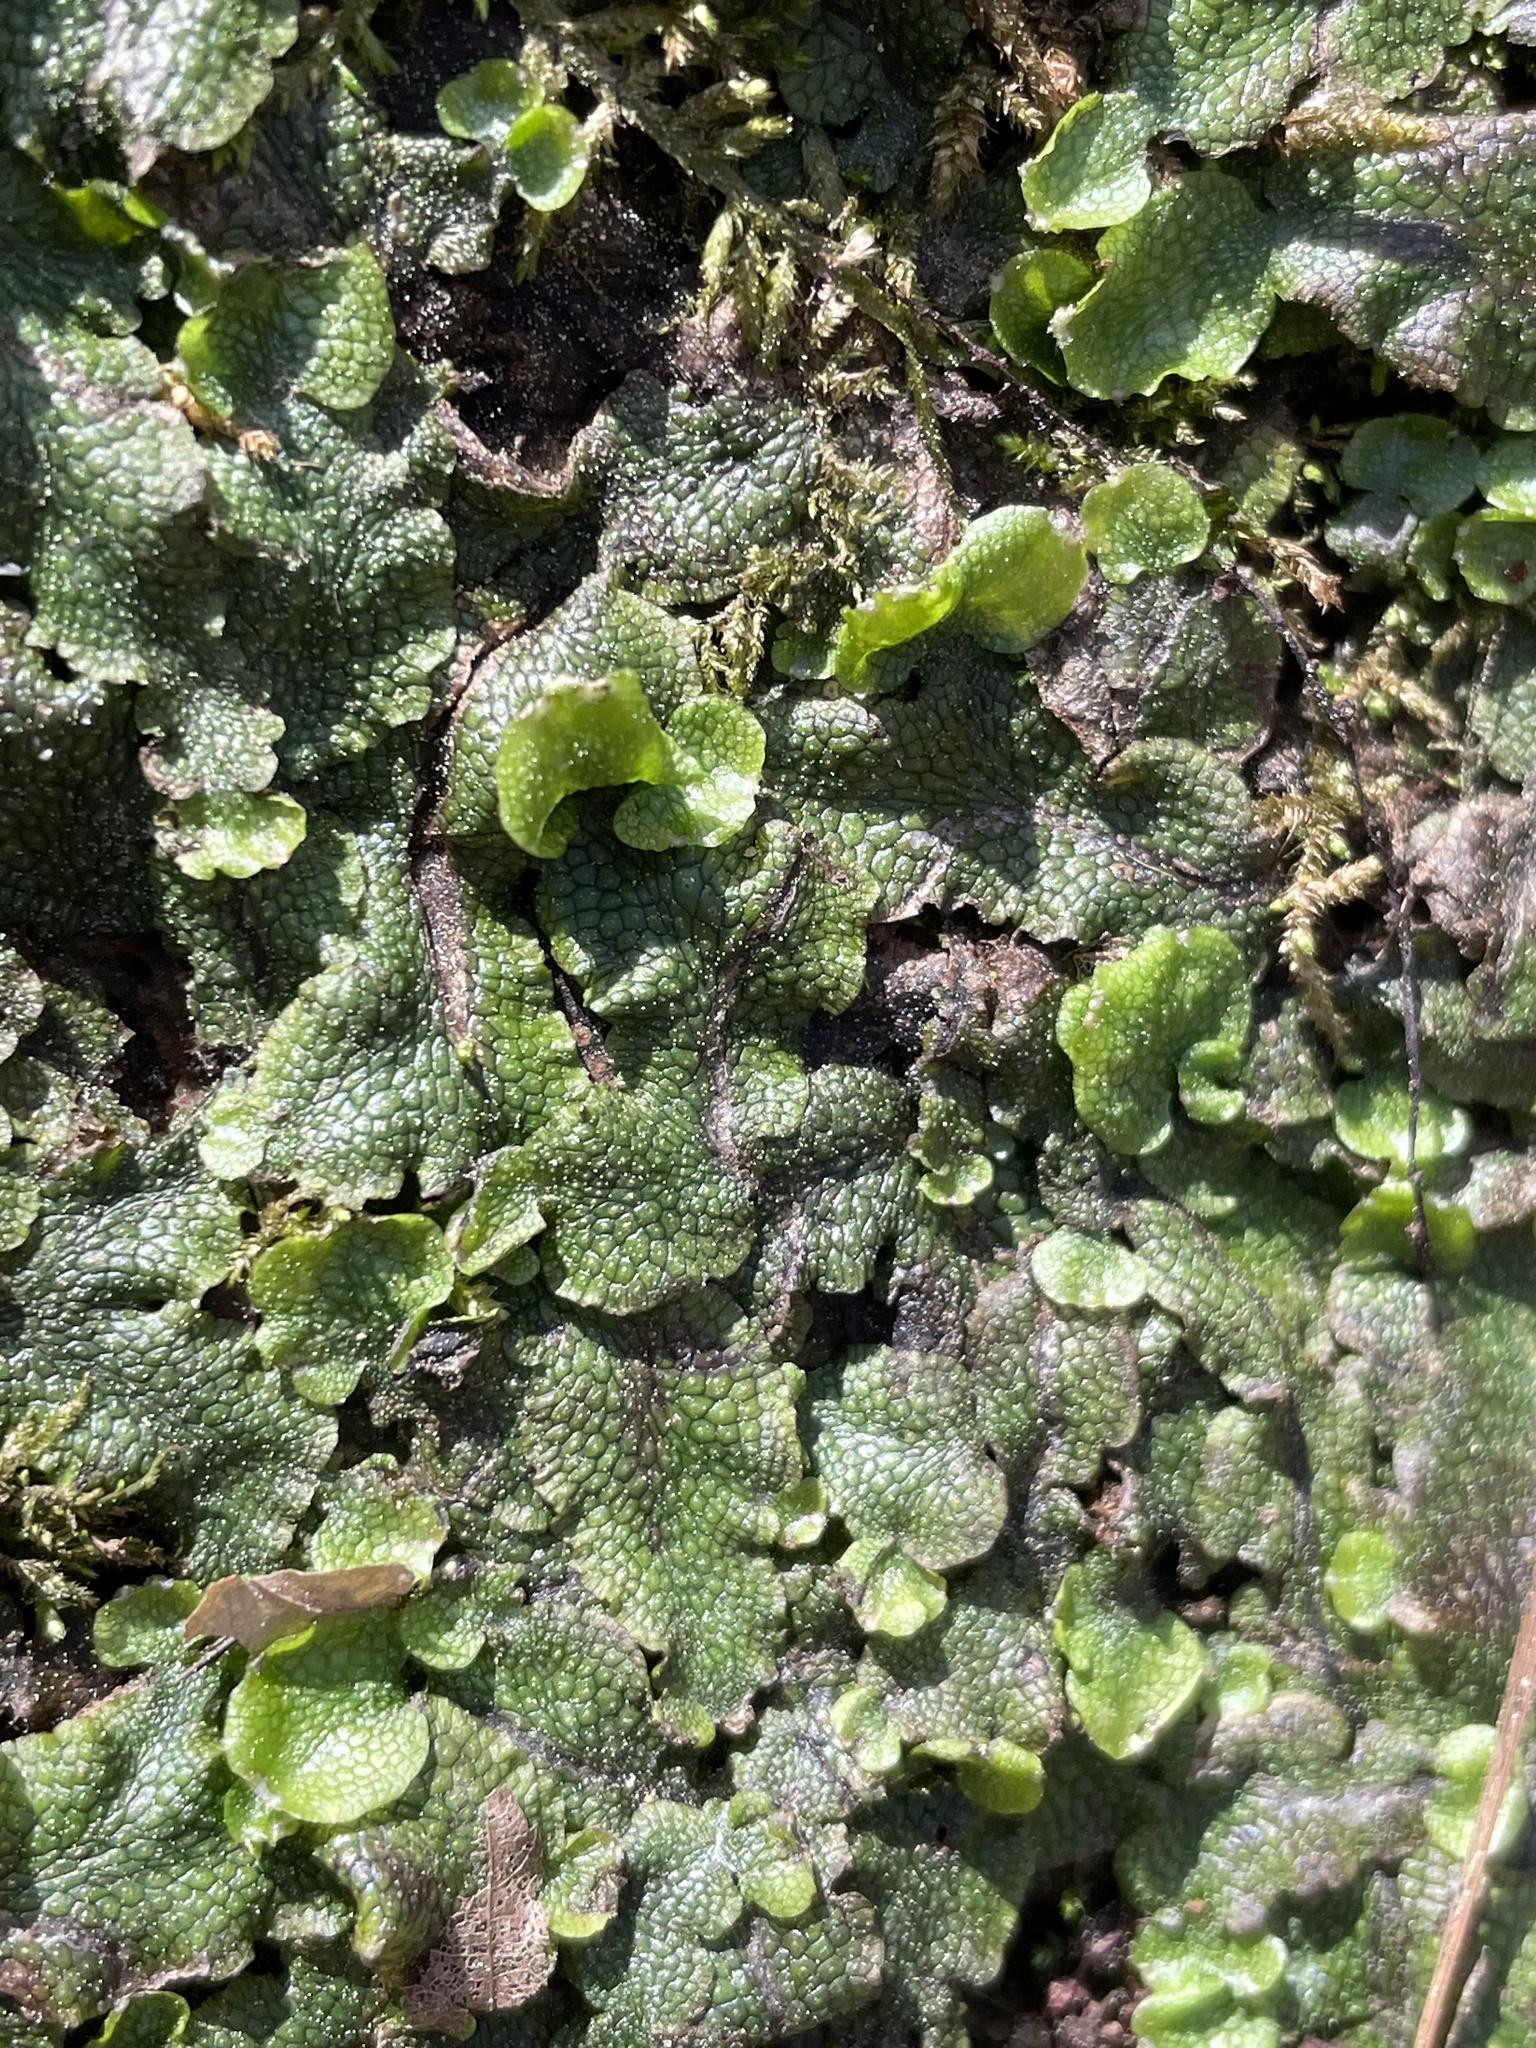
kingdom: Plantae
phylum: Marchantiophyta
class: Marchantiopsida
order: Marchantiales
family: Conocephalaceae
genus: Conocephalum
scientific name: Conocephalum salebrosum
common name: Cat-tongue liverwort
